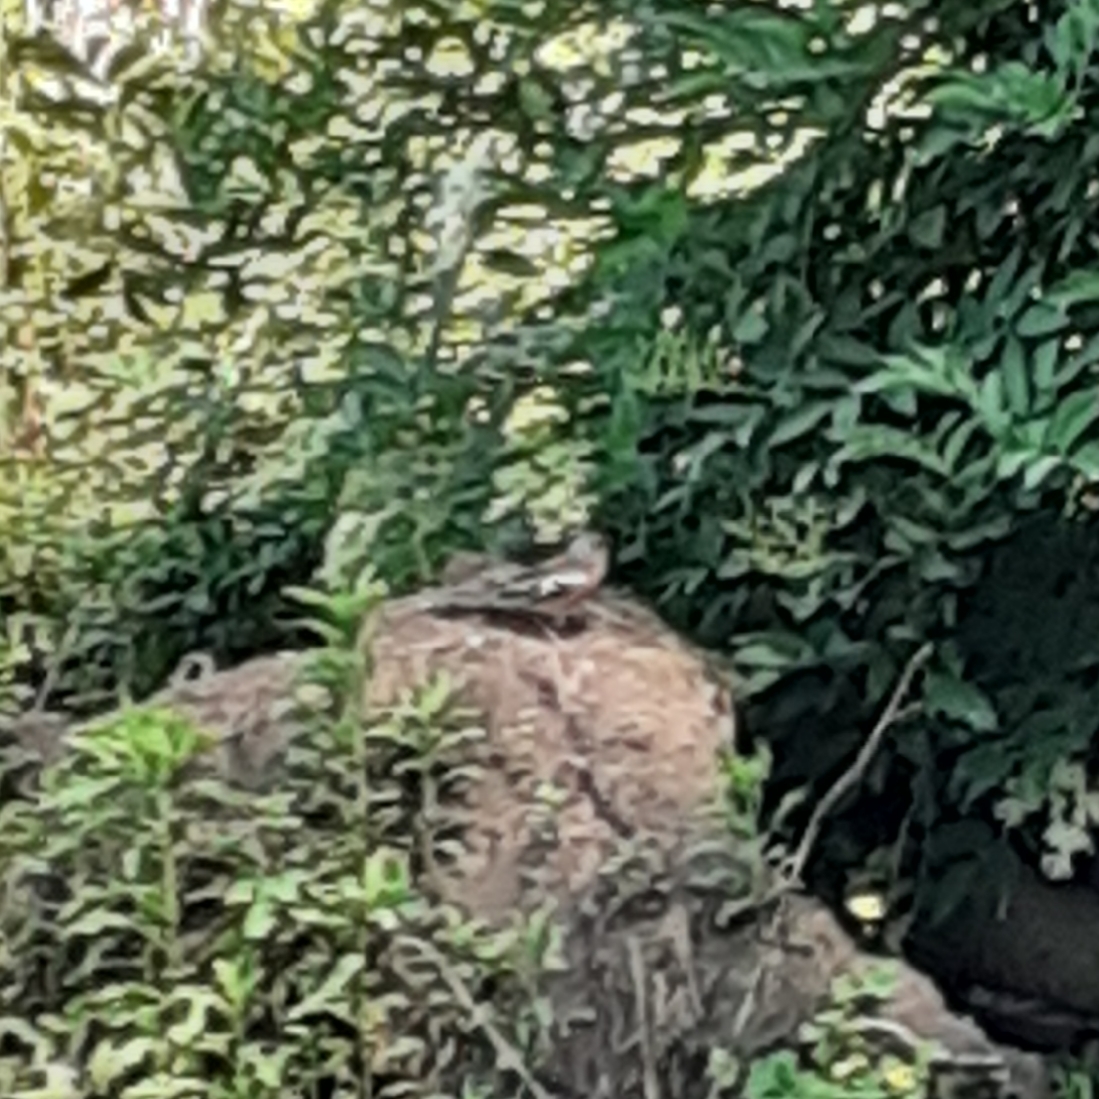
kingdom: Animalia
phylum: Chordata
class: Aves
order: Passeriformes
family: Fringillidae
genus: Fringilla
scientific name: Fringilla coelebs
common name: Common chaffinch
